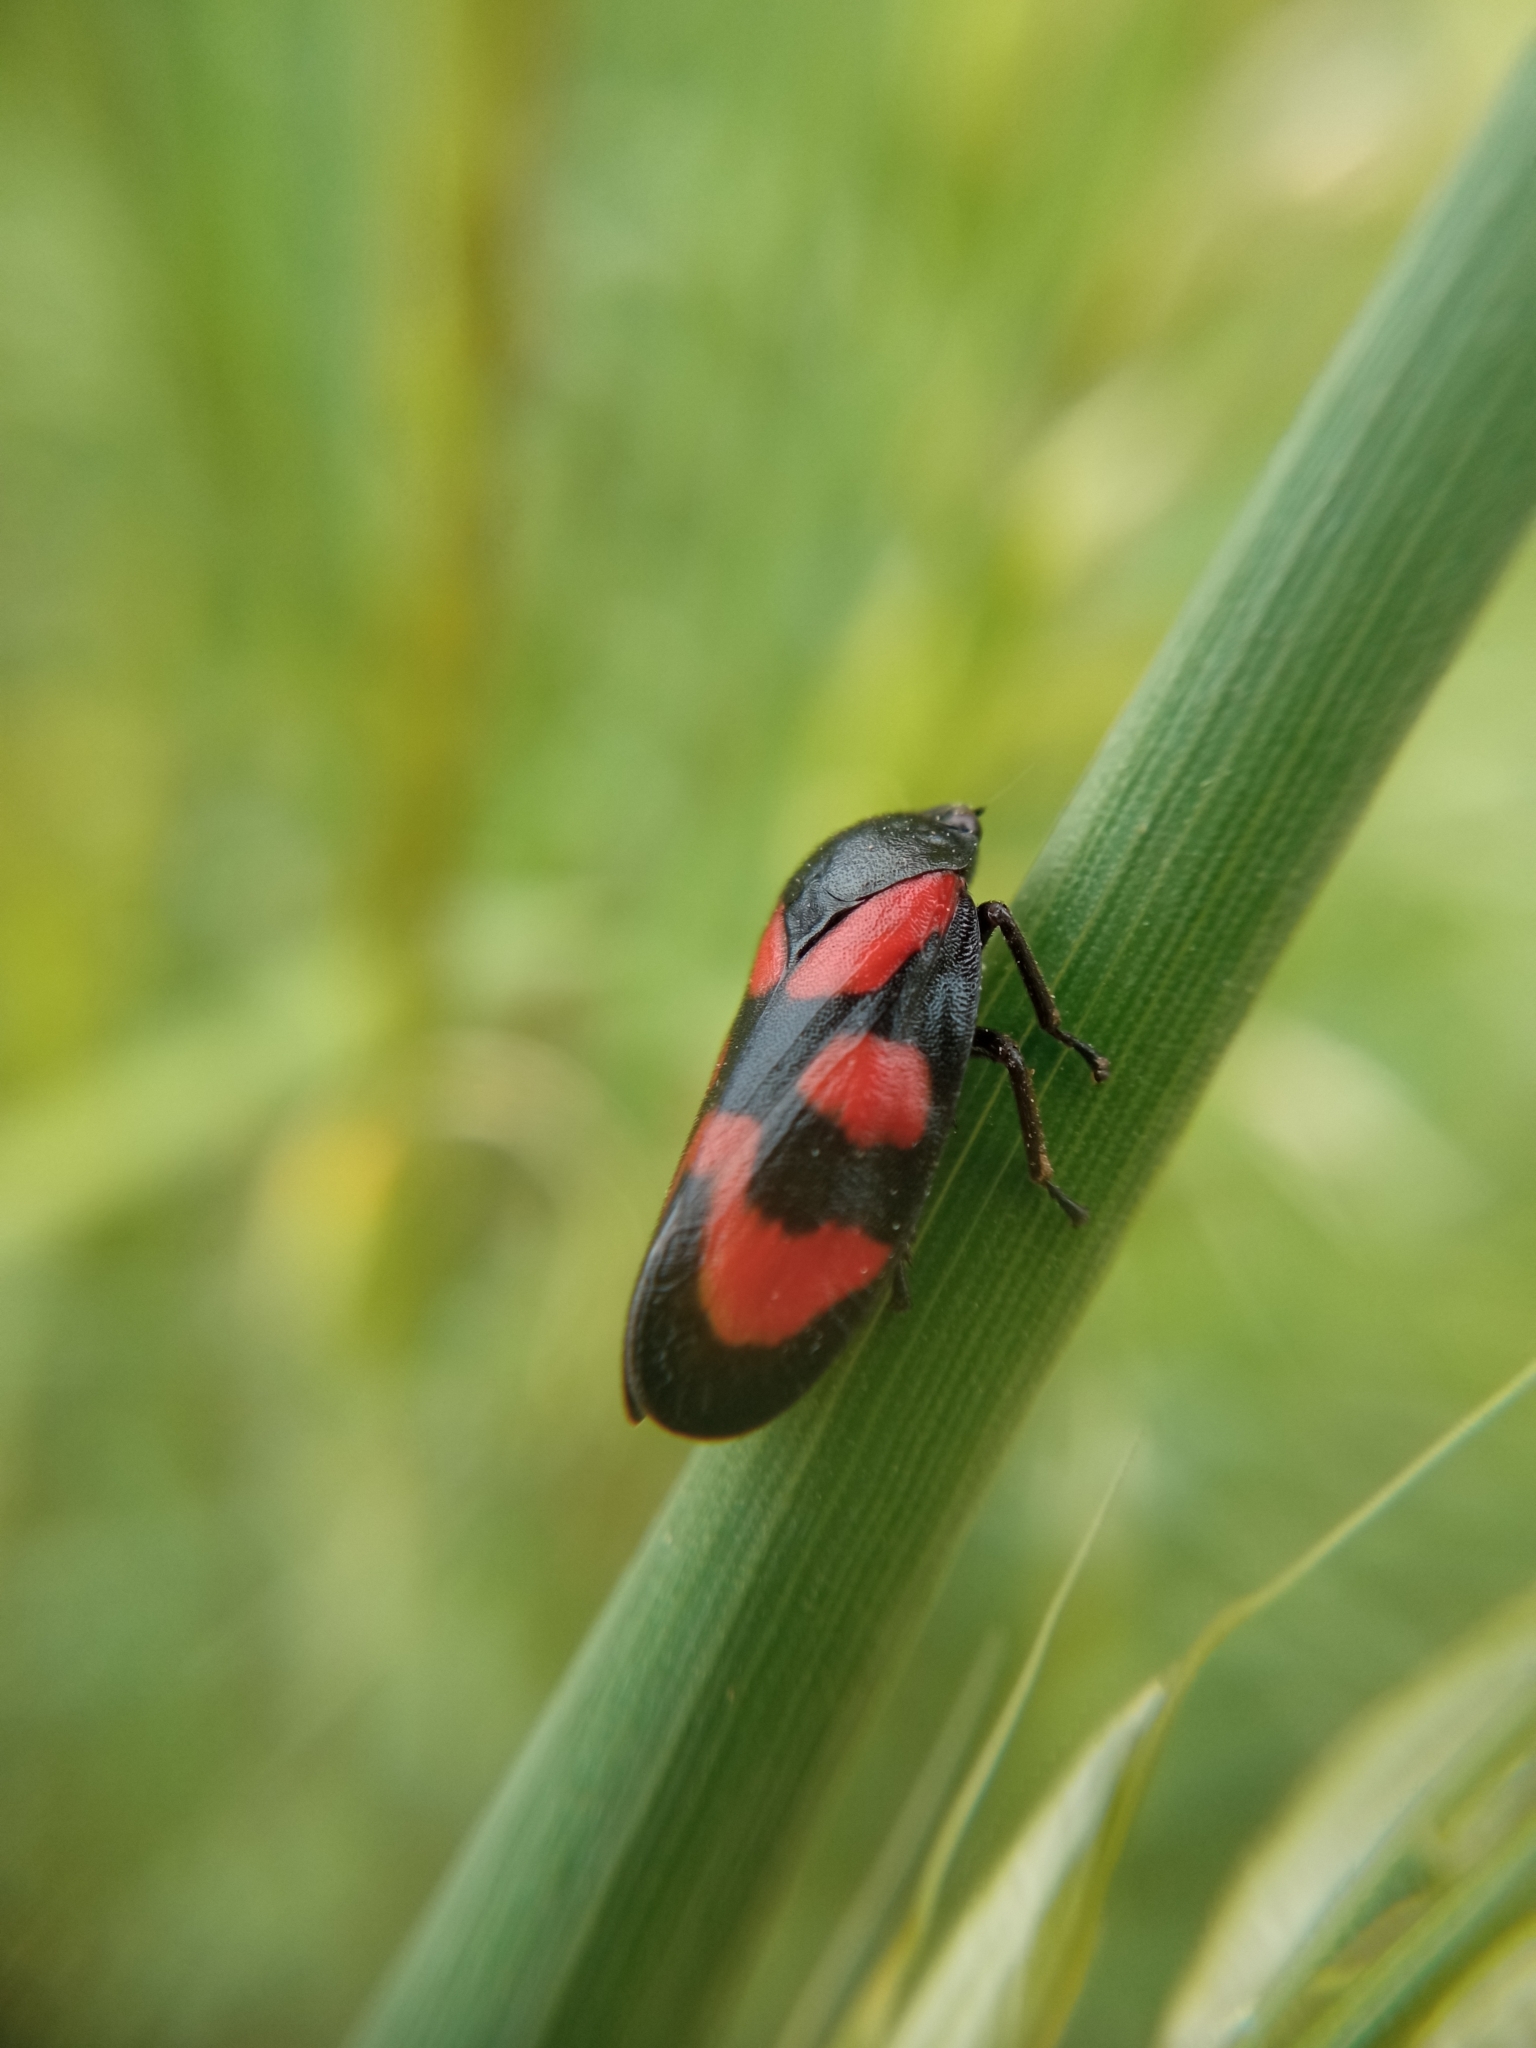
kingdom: Animalia
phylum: Arthropoda
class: Insecta
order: Hemiptera
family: Cercopidae
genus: Cercopis
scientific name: Cercopis vulnerata
